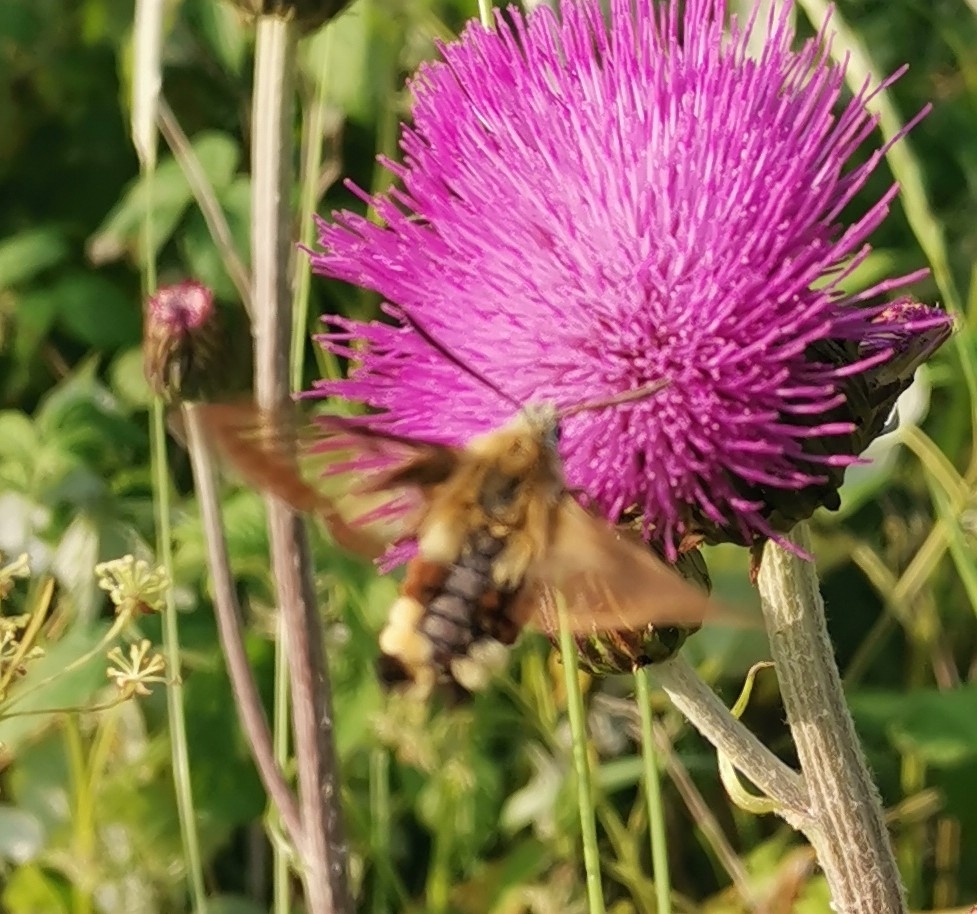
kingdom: Animalia
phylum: Arthropoda
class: Insecta
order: Lepidoptera
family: Sphingidae
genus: Hemaris
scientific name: Hemaris fuciformis
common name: Broad-bordered bee hawk-moth
